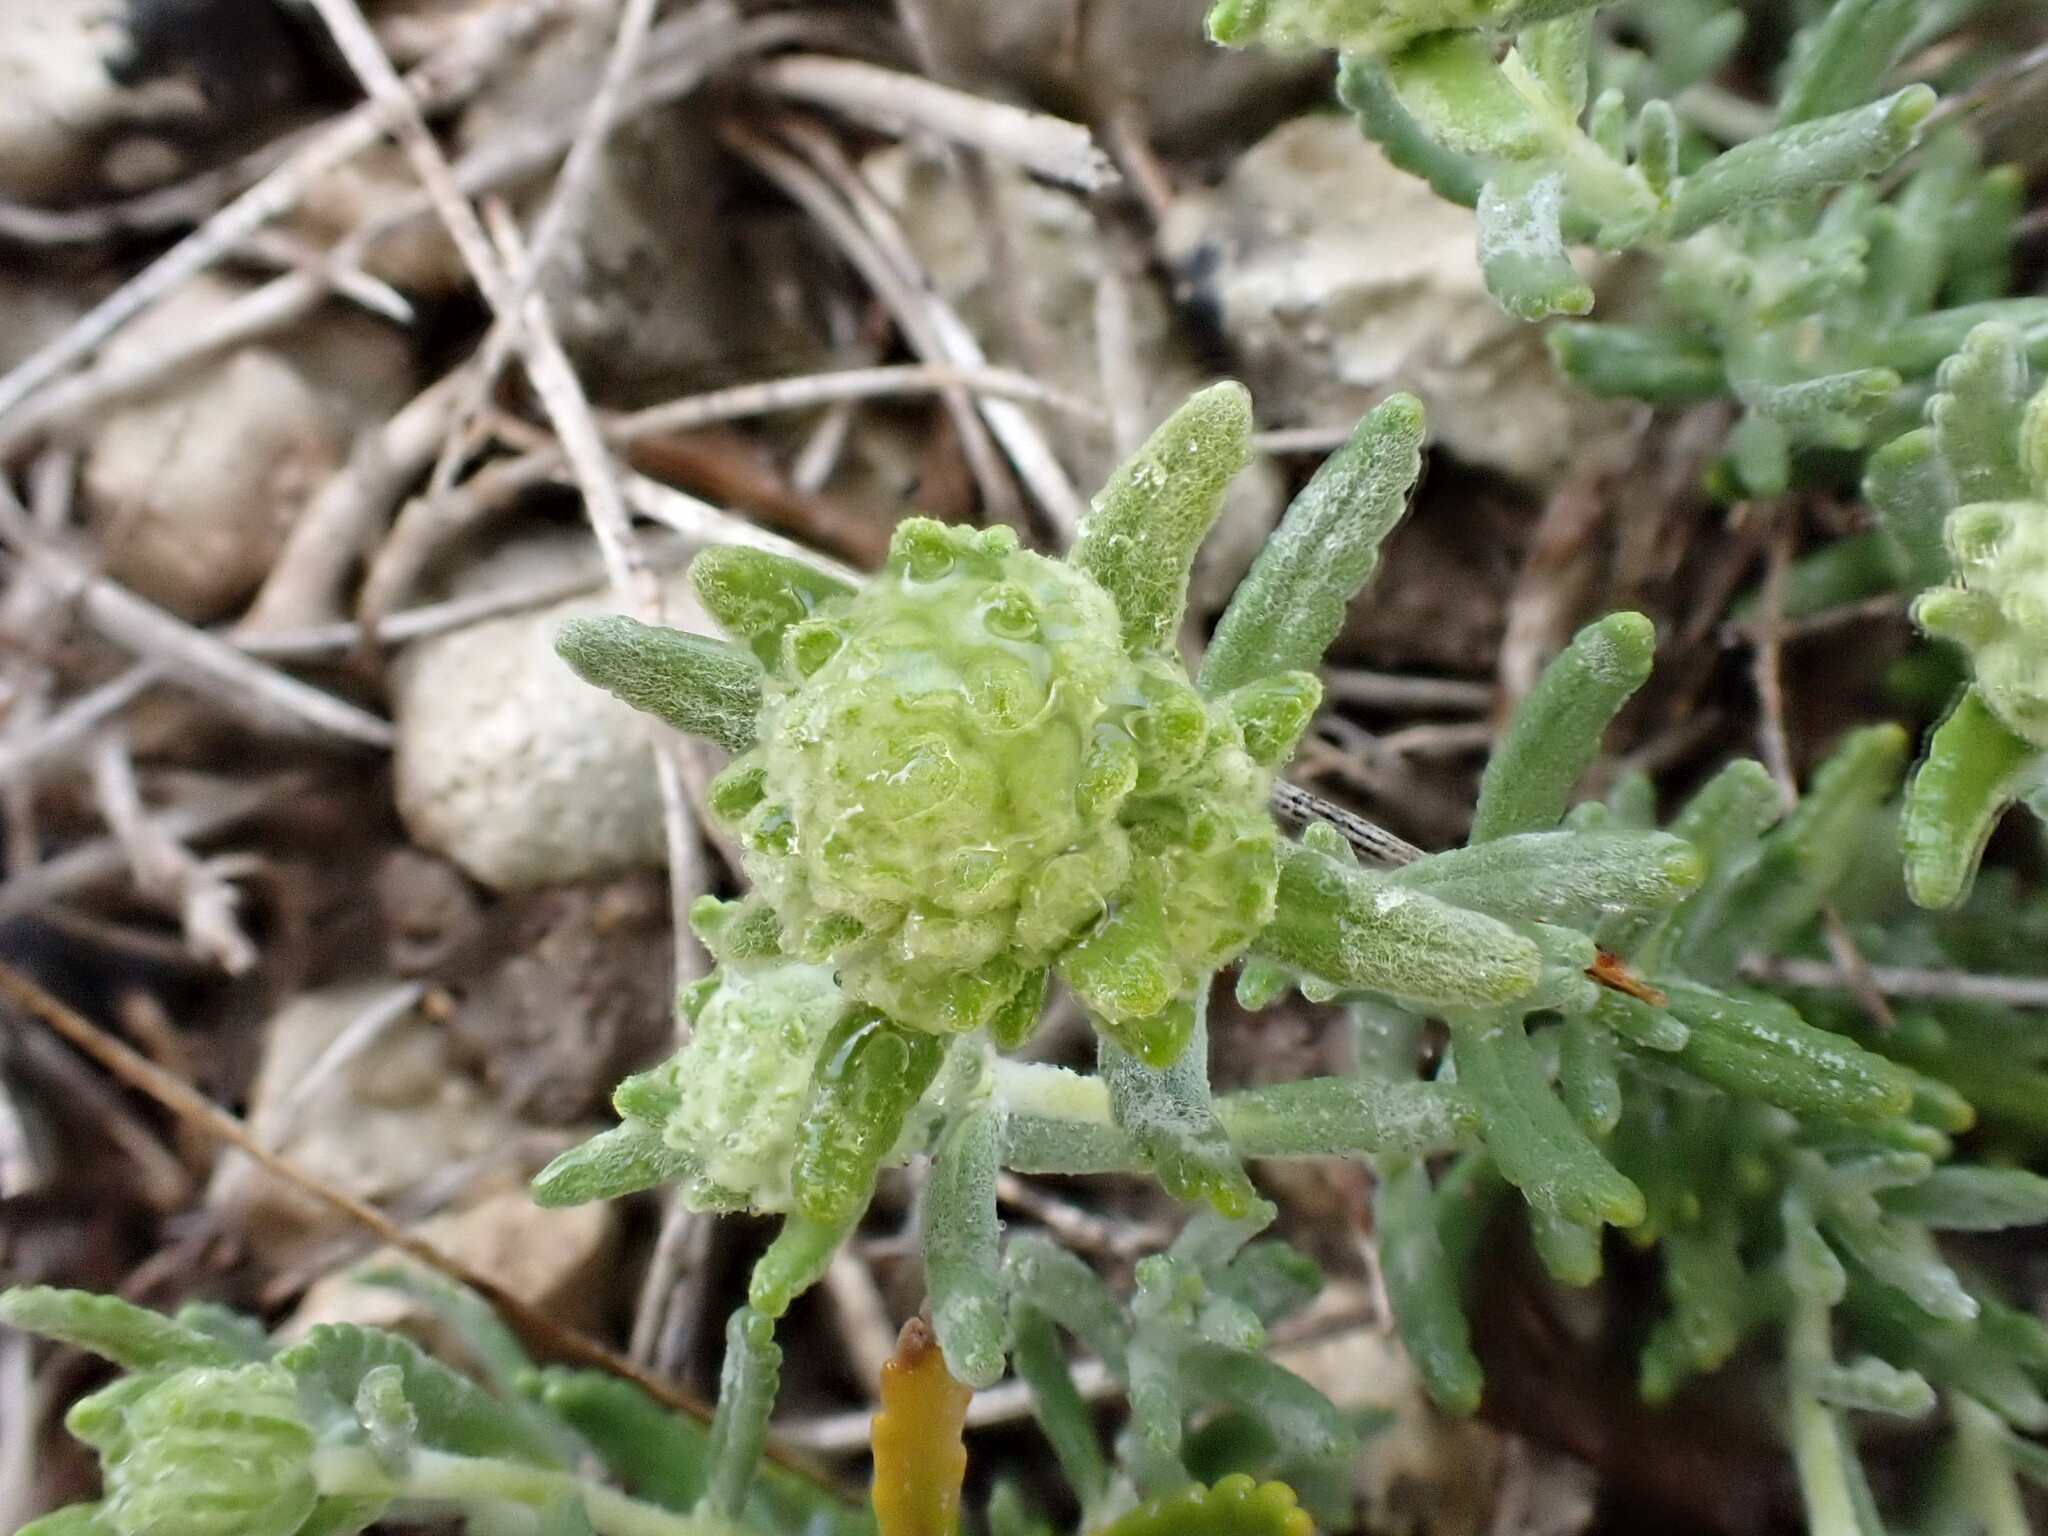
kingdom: Plantae
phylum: Tracheophyta
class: Magnoliopsida
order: Lamiales
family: Lamiaceae
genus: Teucrium
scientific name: Teucrium polium
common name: Poley
